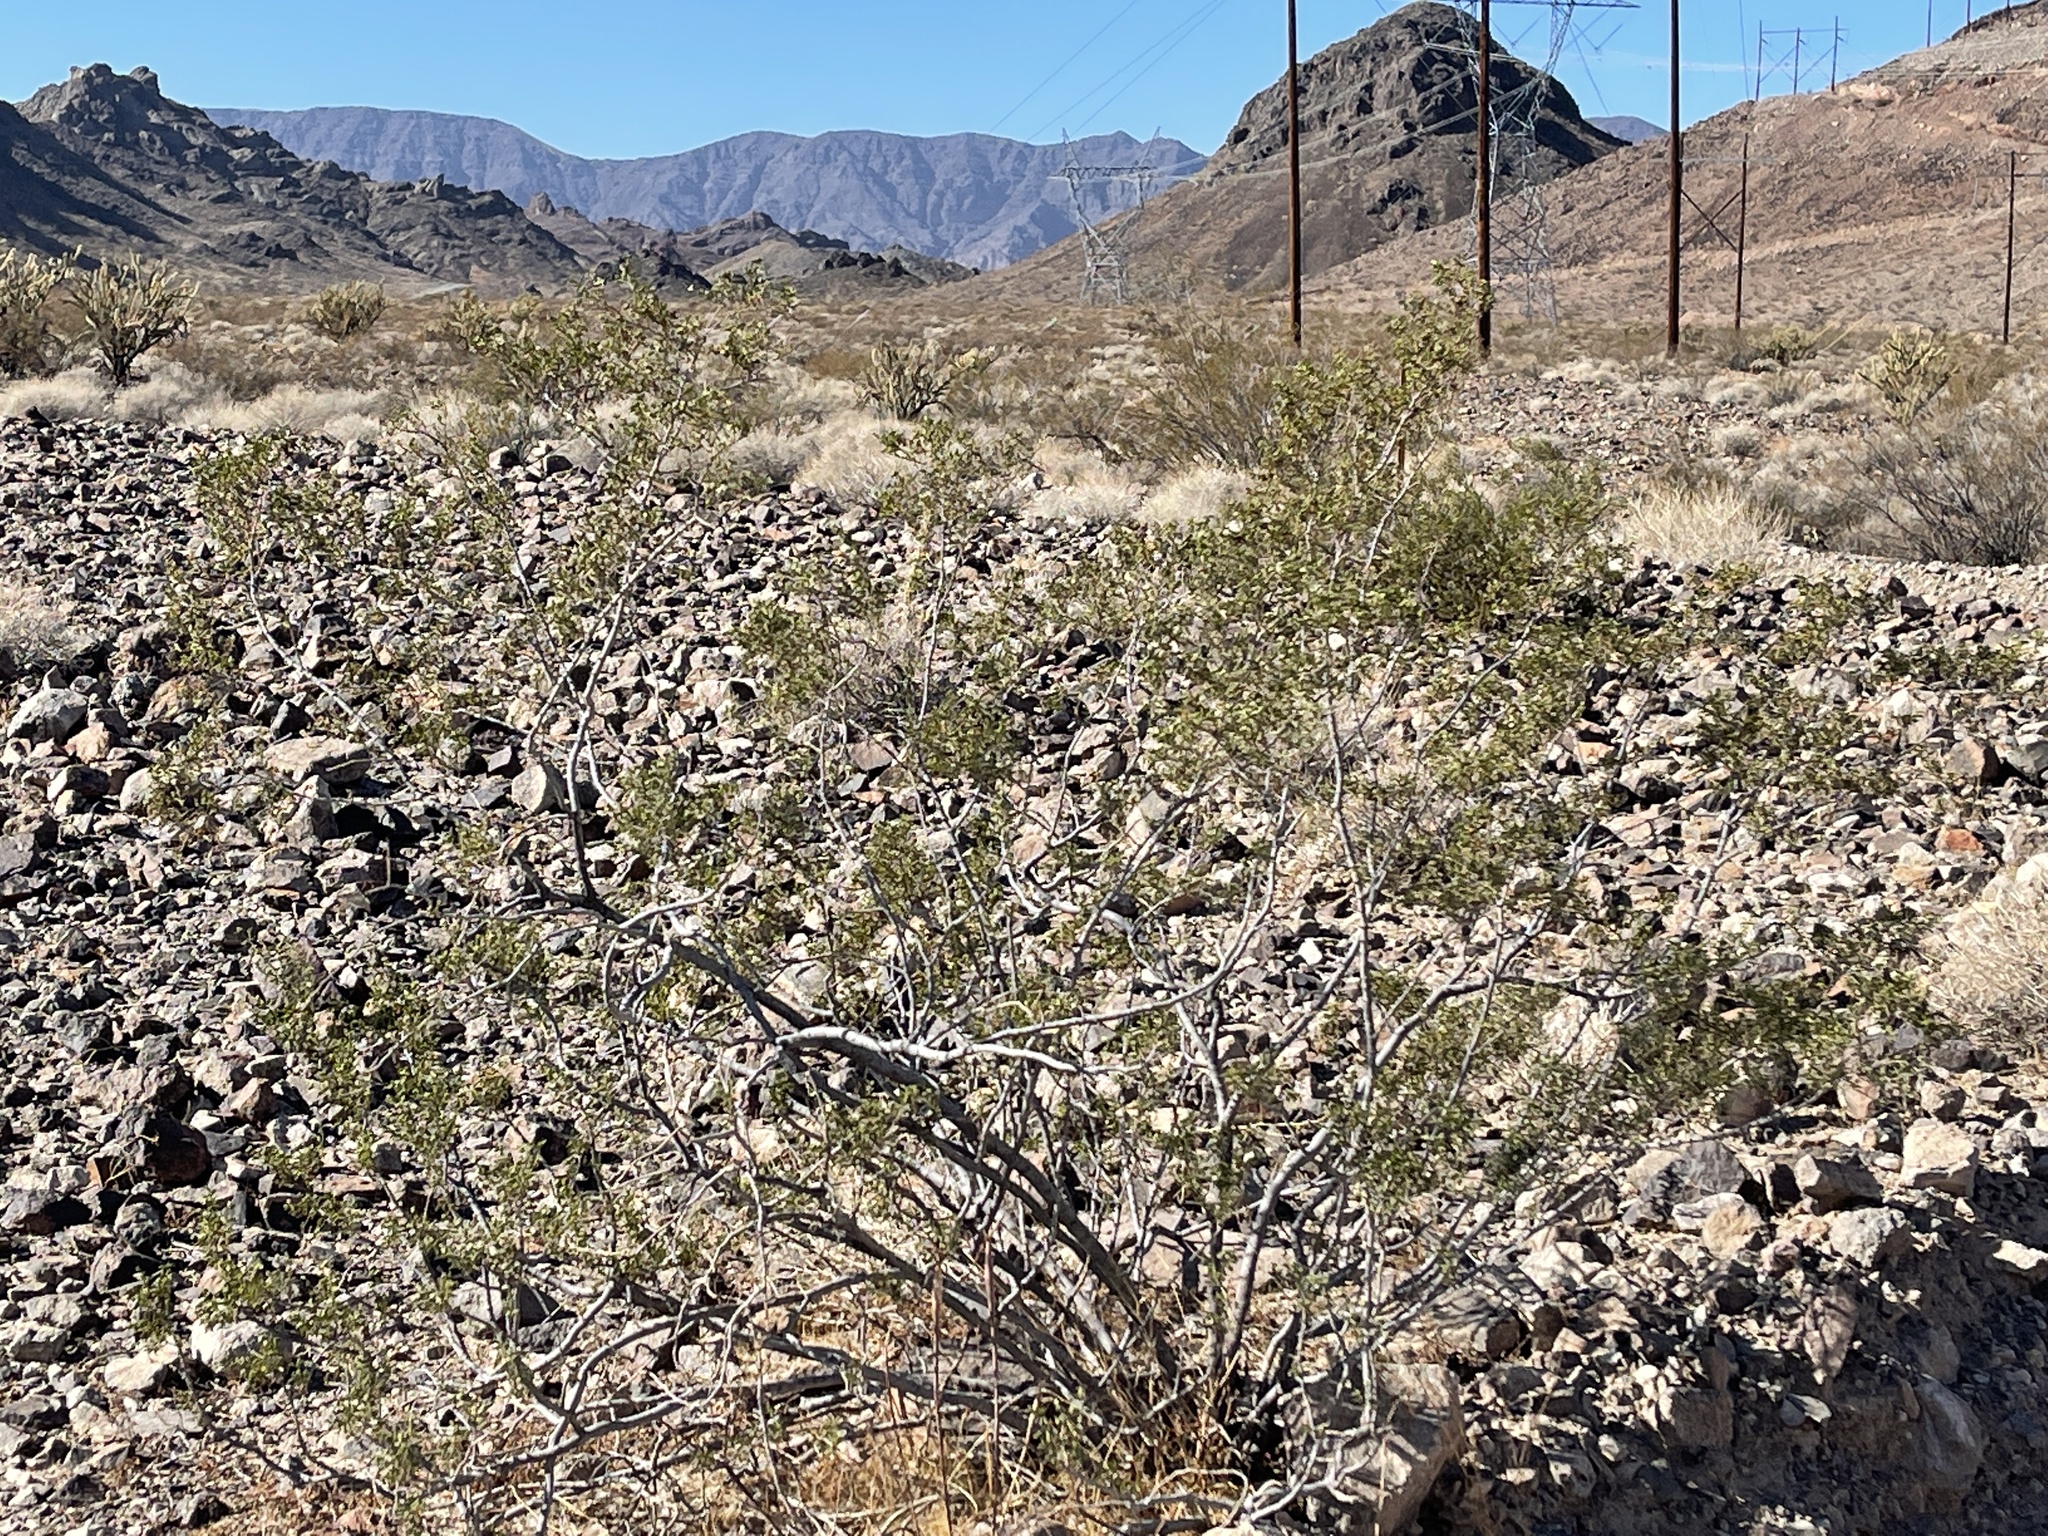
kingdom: Plantae
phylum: Tracheophyta
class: Magnoliopsida
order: Zygophyllales
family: Zygophyllaceae
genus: Larrea
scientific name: Larrea tridentata
